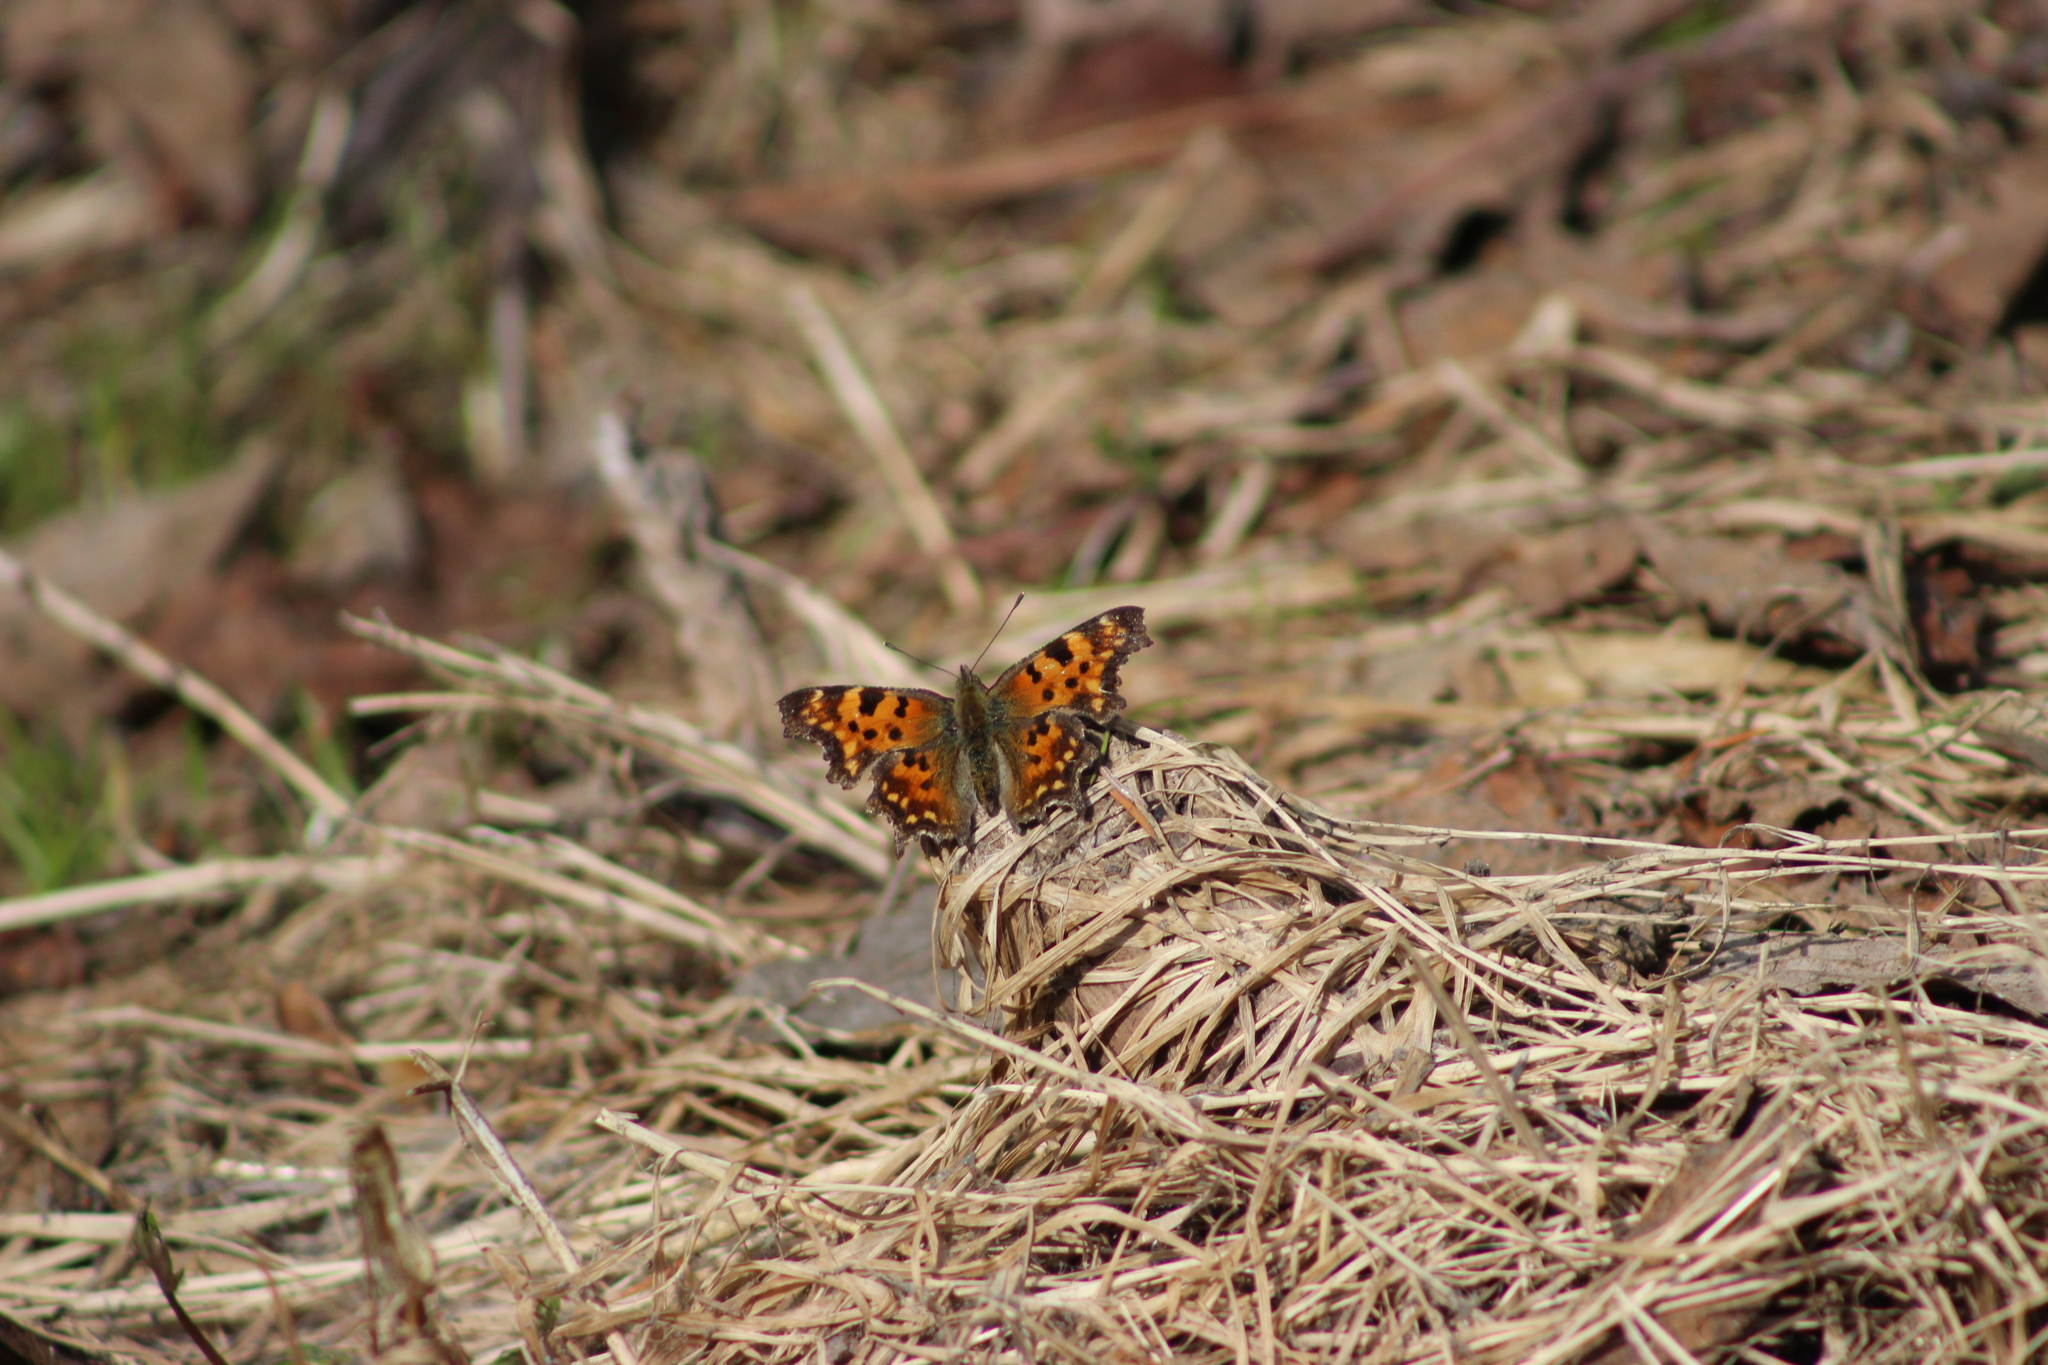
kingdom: Animalia
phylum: Arthropoda
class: Insecta
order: Lepidoptera
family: Nymphalidae
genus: Polygonia
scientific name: Polygonia c-album
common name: Comma
